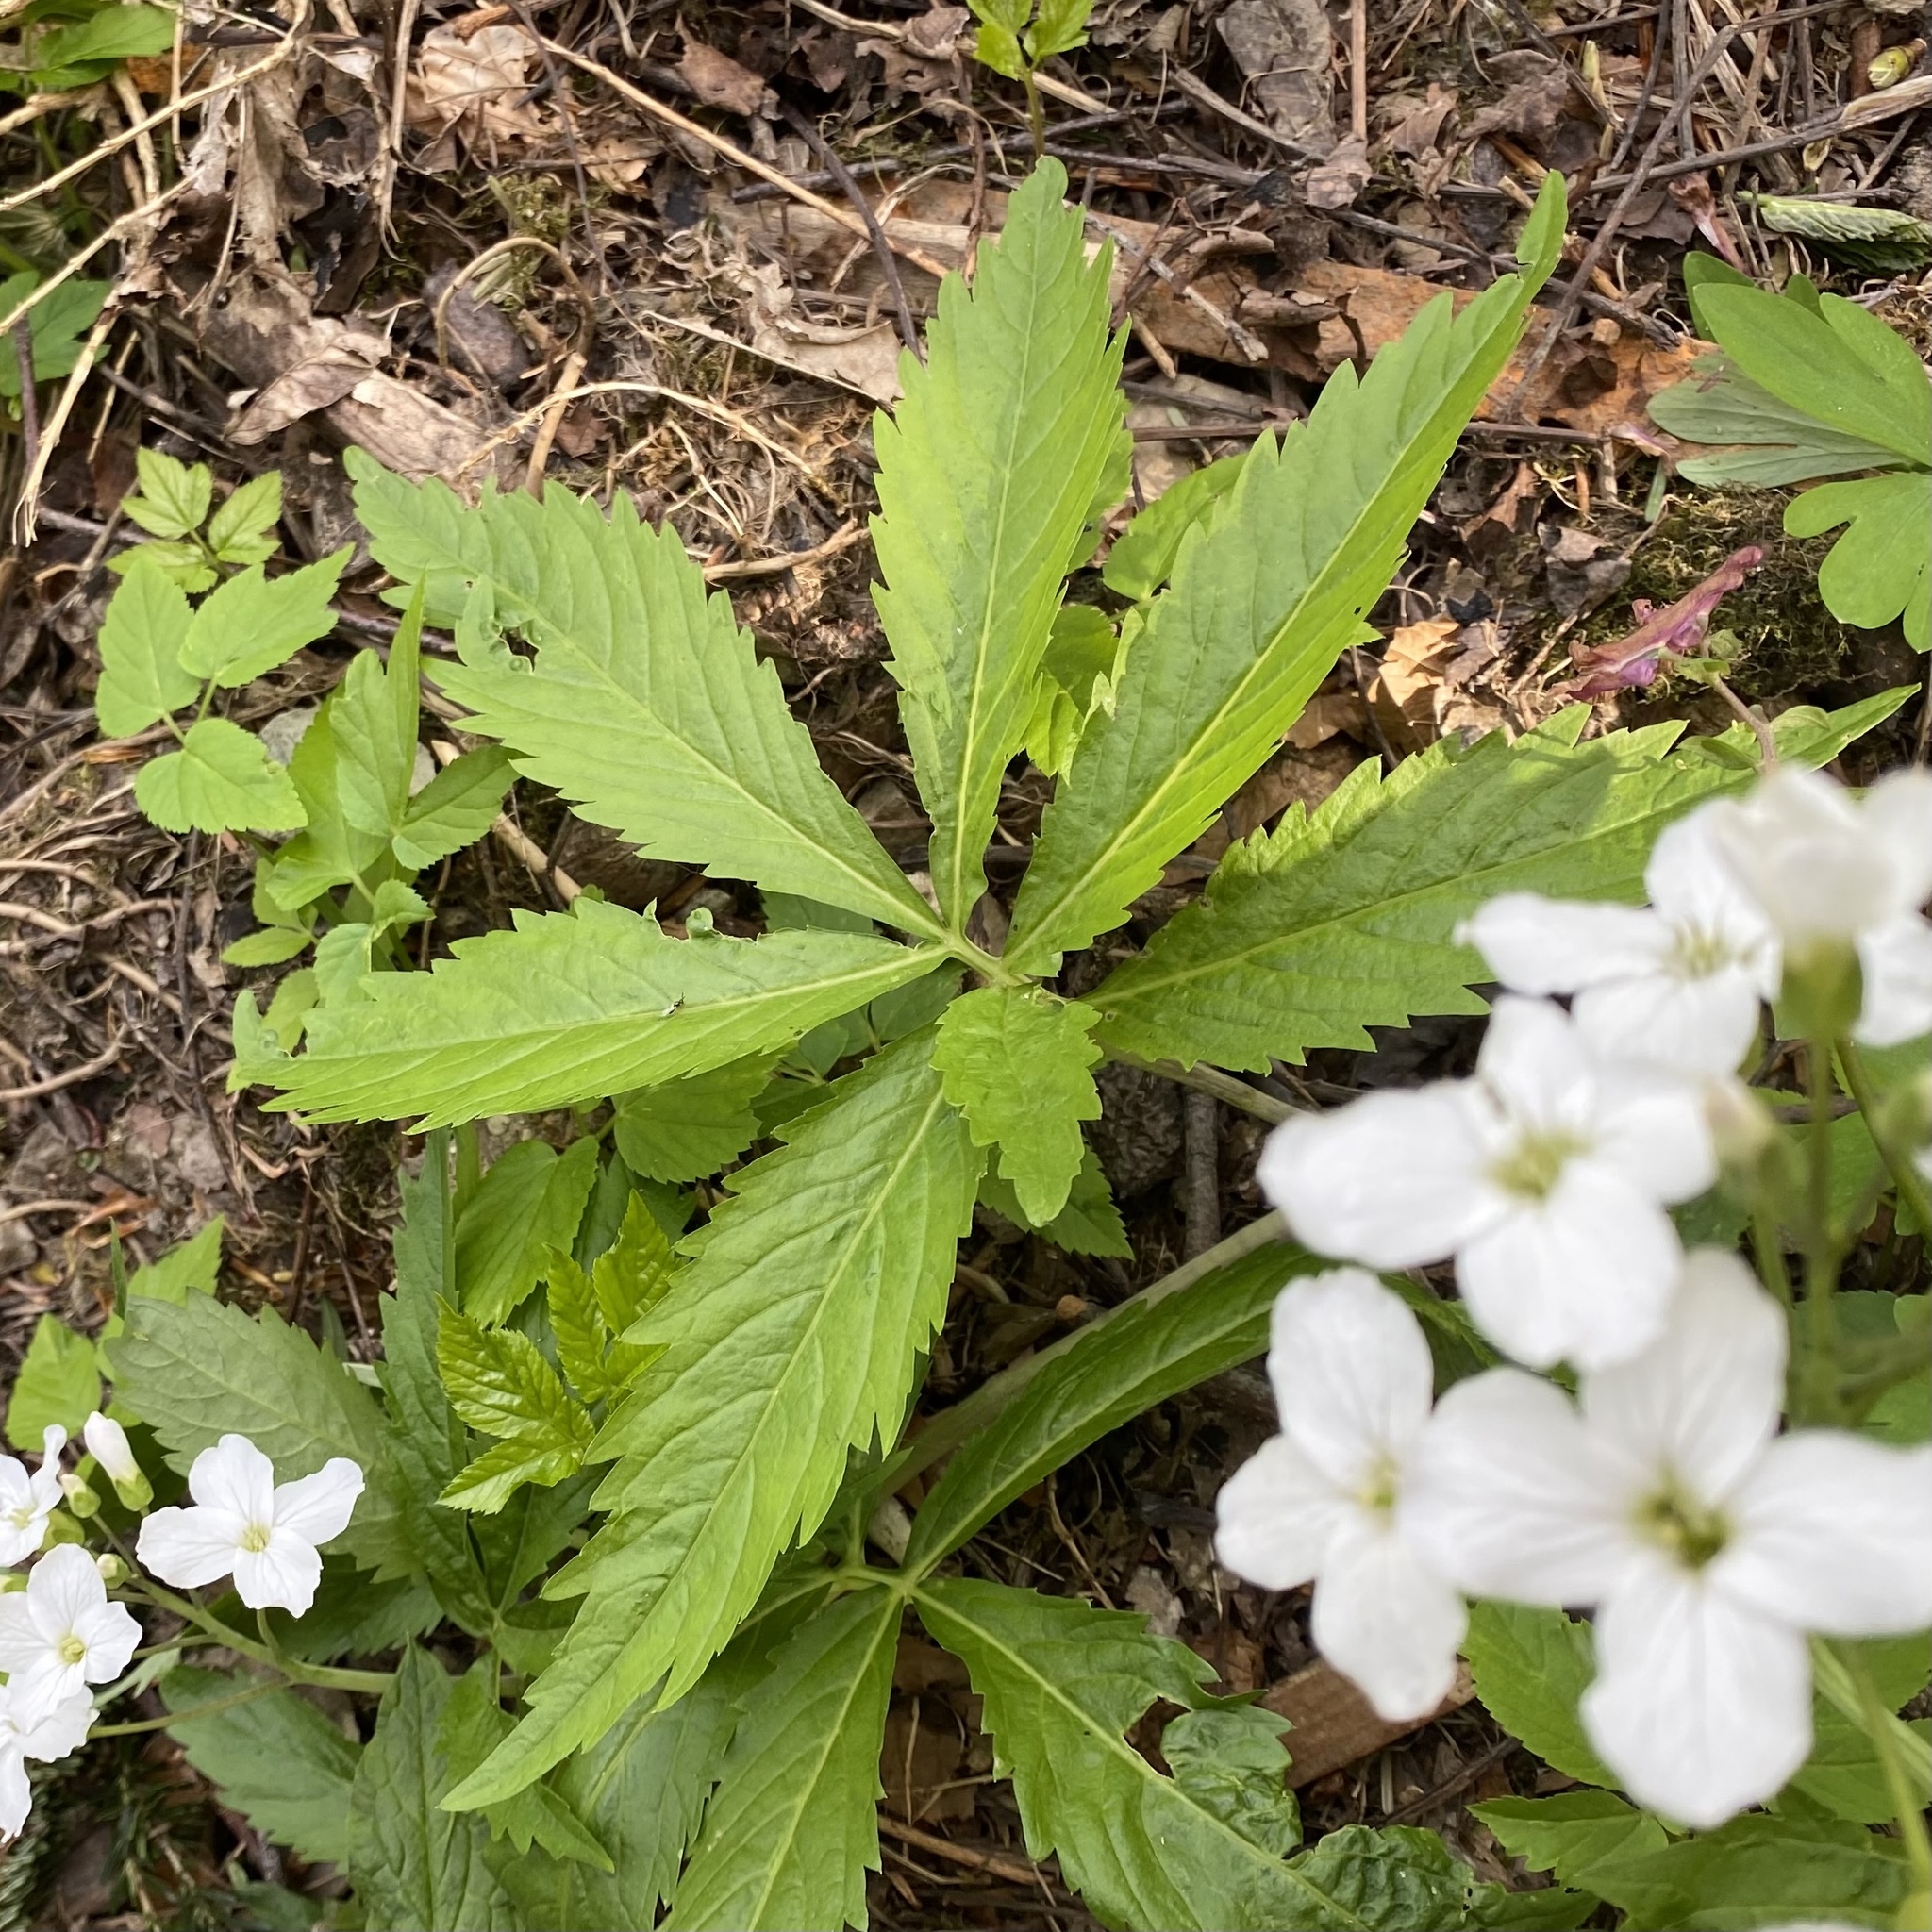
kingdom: Plantae
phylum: Tracheophyta
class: Magnoliopsida
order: Brassicales
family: Brassicaceae
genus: Cardamine
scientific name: Cardamine heptaphylla
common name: Pinnate coralroot
